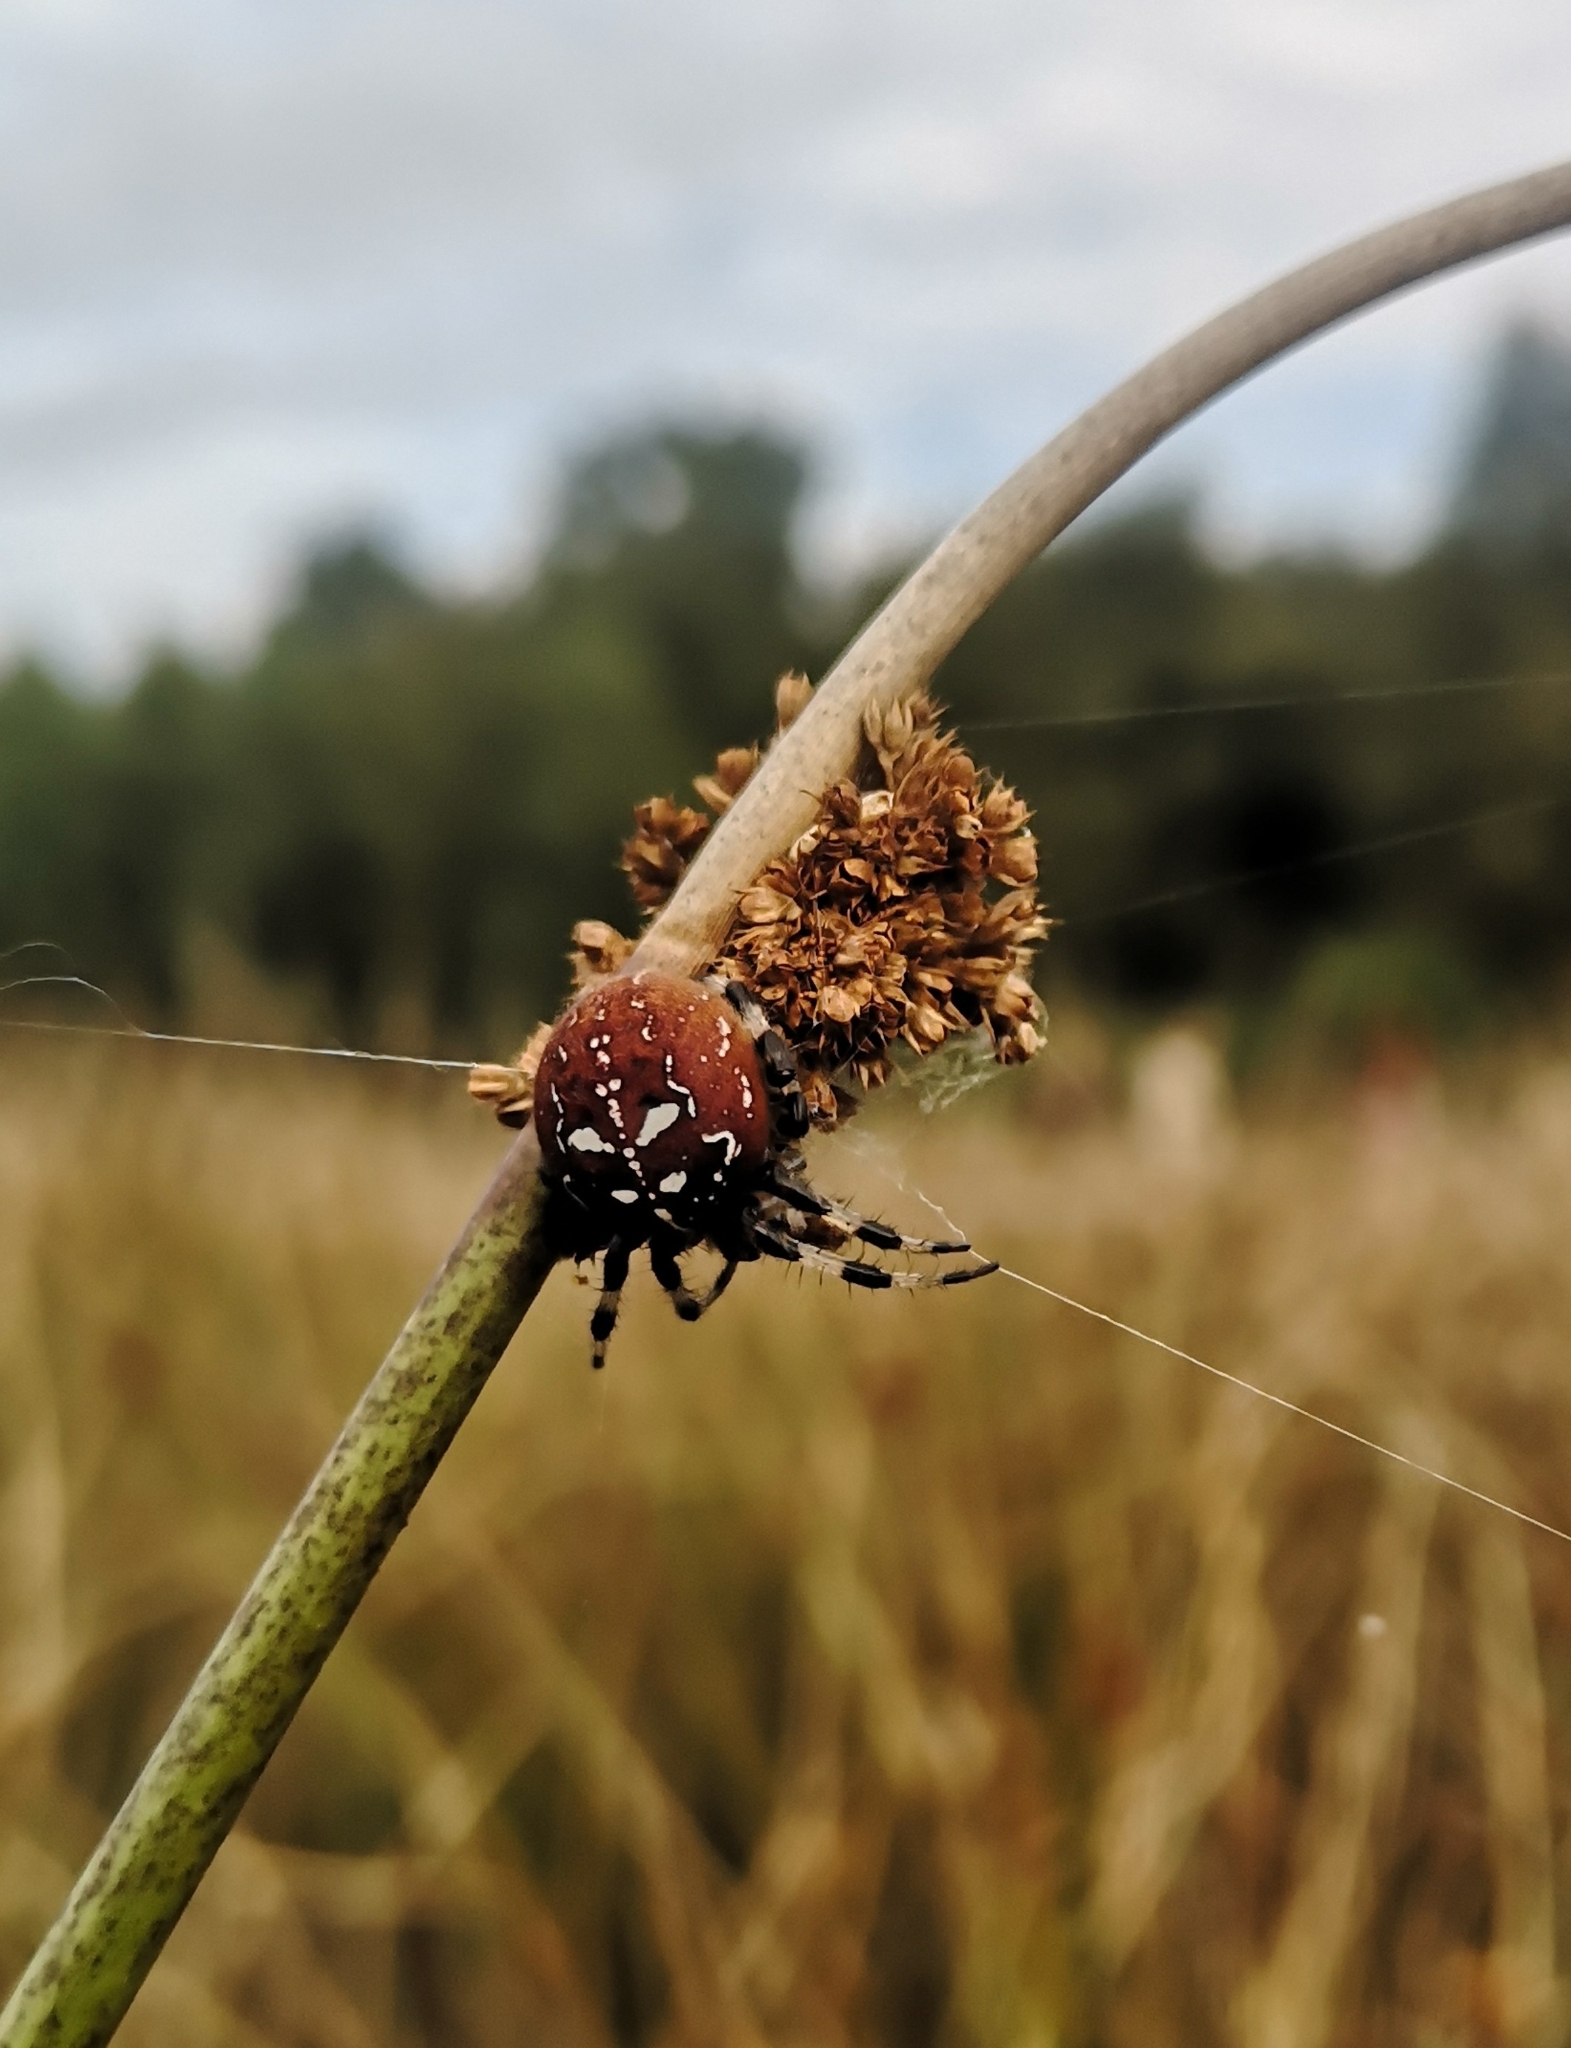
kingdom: Animalia
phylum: Arthropoda
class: Arachnida
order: Araneae
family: Araneidae
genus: Araneus
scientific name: Araneus quadratus
